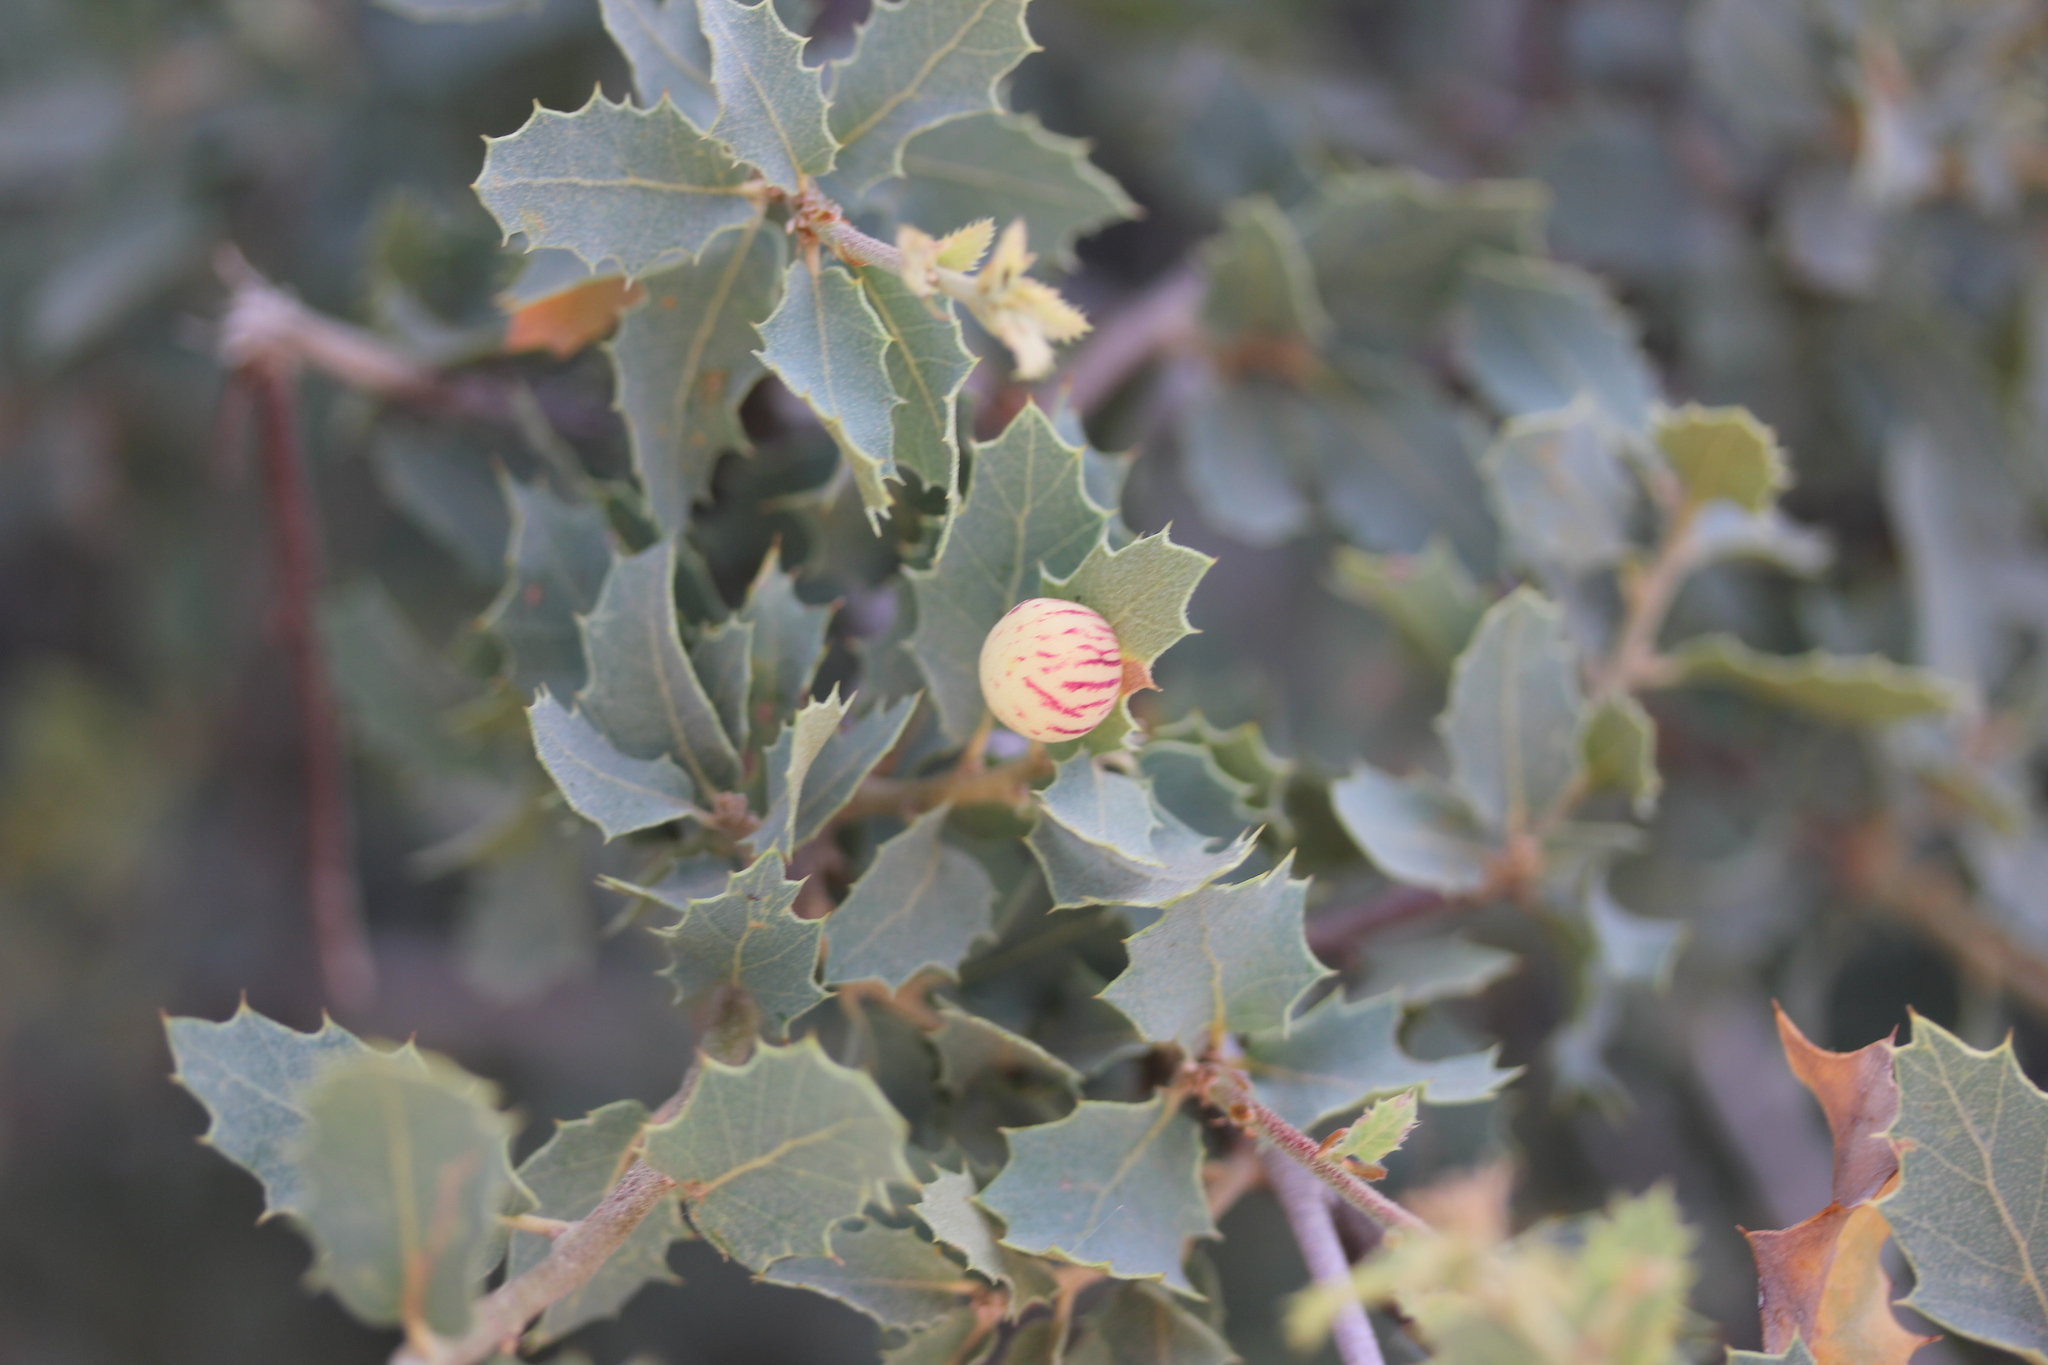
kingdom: Animalia
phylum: Arthropoda
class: Insecta
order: Hymenoptera
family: Cynipidae
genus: Atrusca
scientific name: Atrusca
